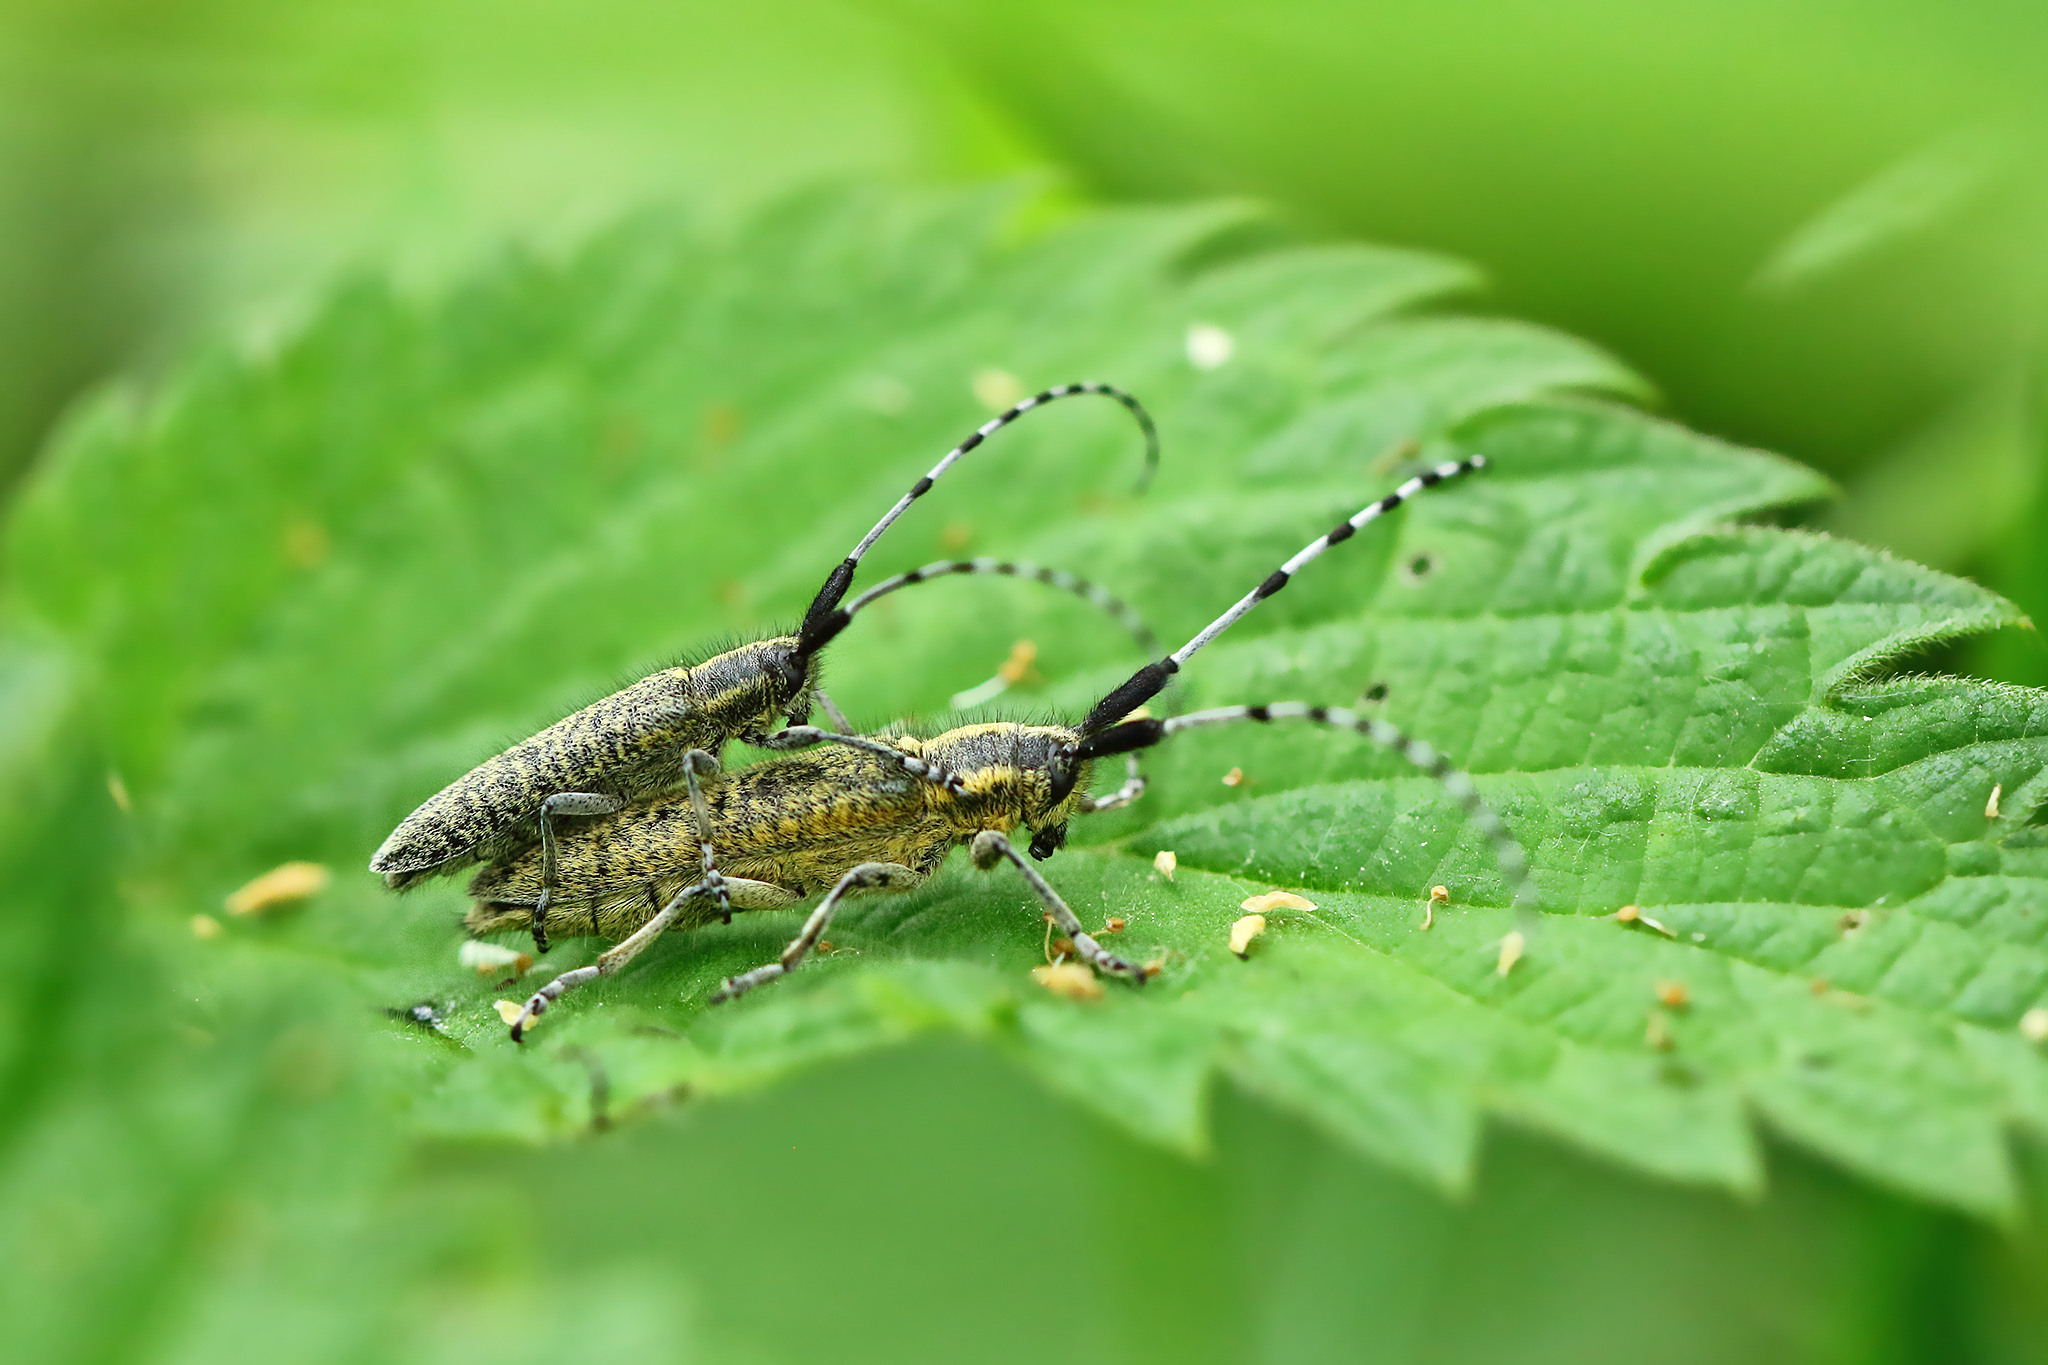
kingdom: Animalia
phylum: Arthropoda
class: Insecta
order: Coleoptera
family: Cerambycidae
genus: Agapanthia
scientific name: Agapanthia villosoviridescens
